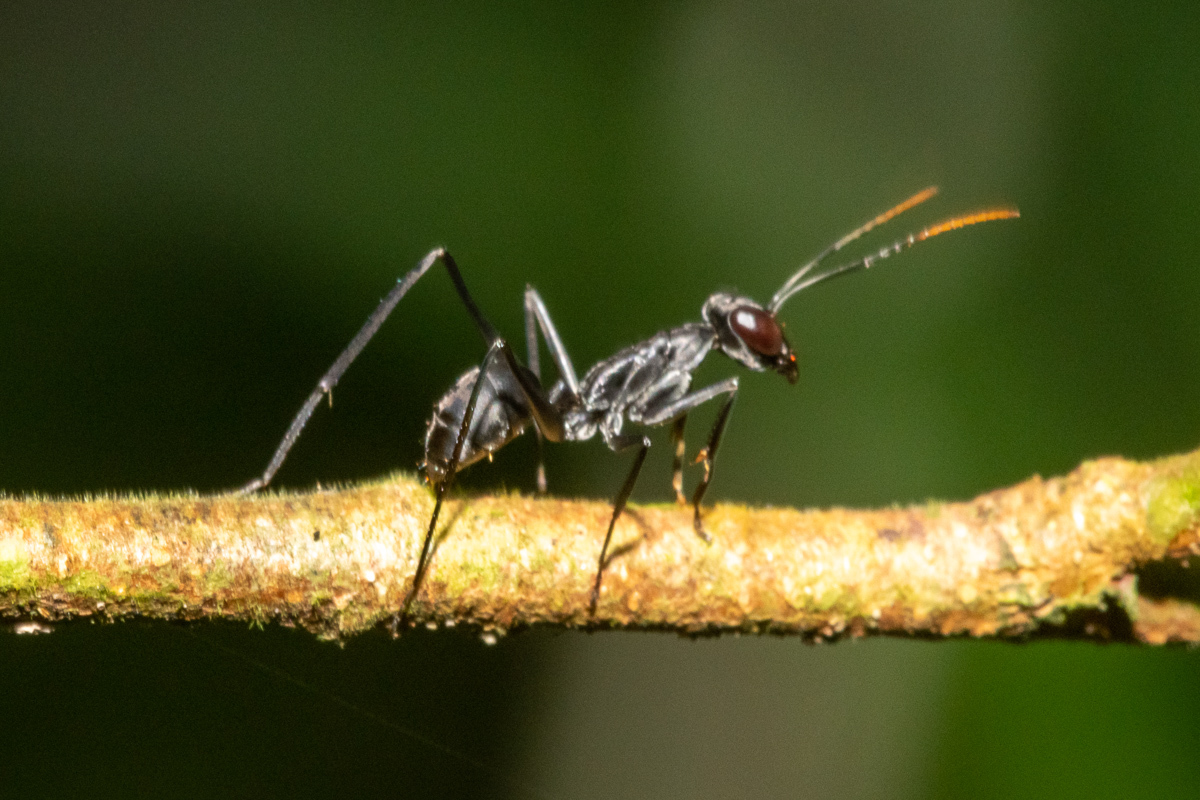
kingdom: Animalia
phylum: Arthropoda
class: Insecta
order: Hymenoptera
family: Formicidae
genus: Gigantiops
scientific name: Gigantiops destructor
